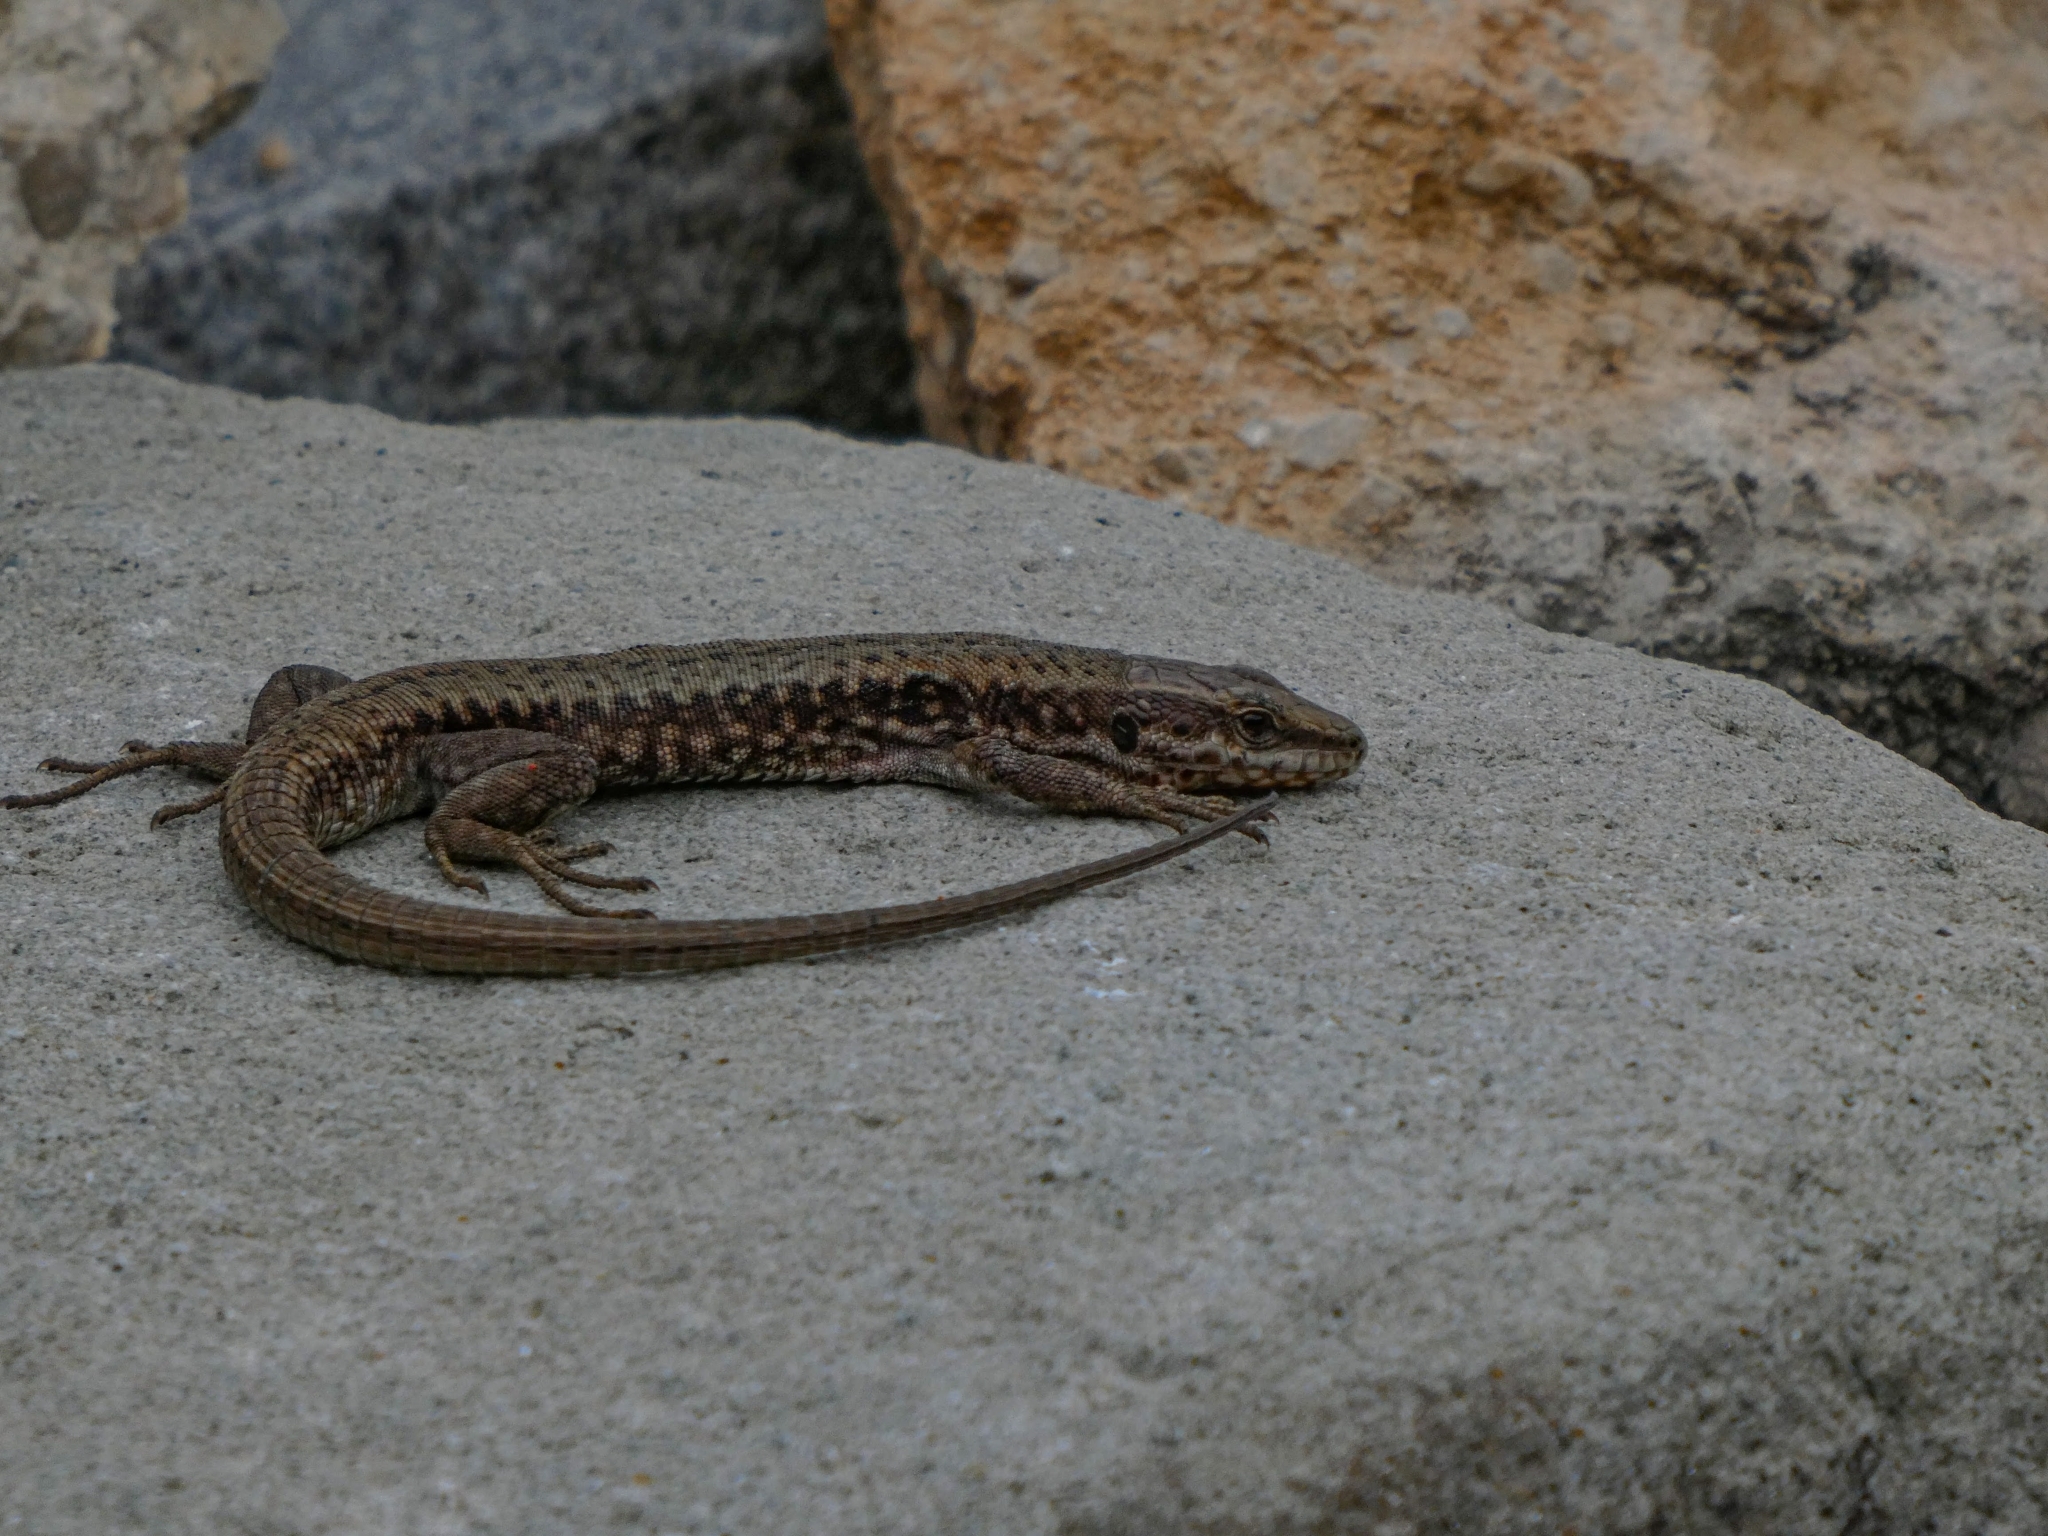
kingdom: Animalia
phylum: Chordata
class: Squamata
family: Lacertidae
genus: Podarcis
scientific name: Podarcis muralis
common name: Common wall lizard
